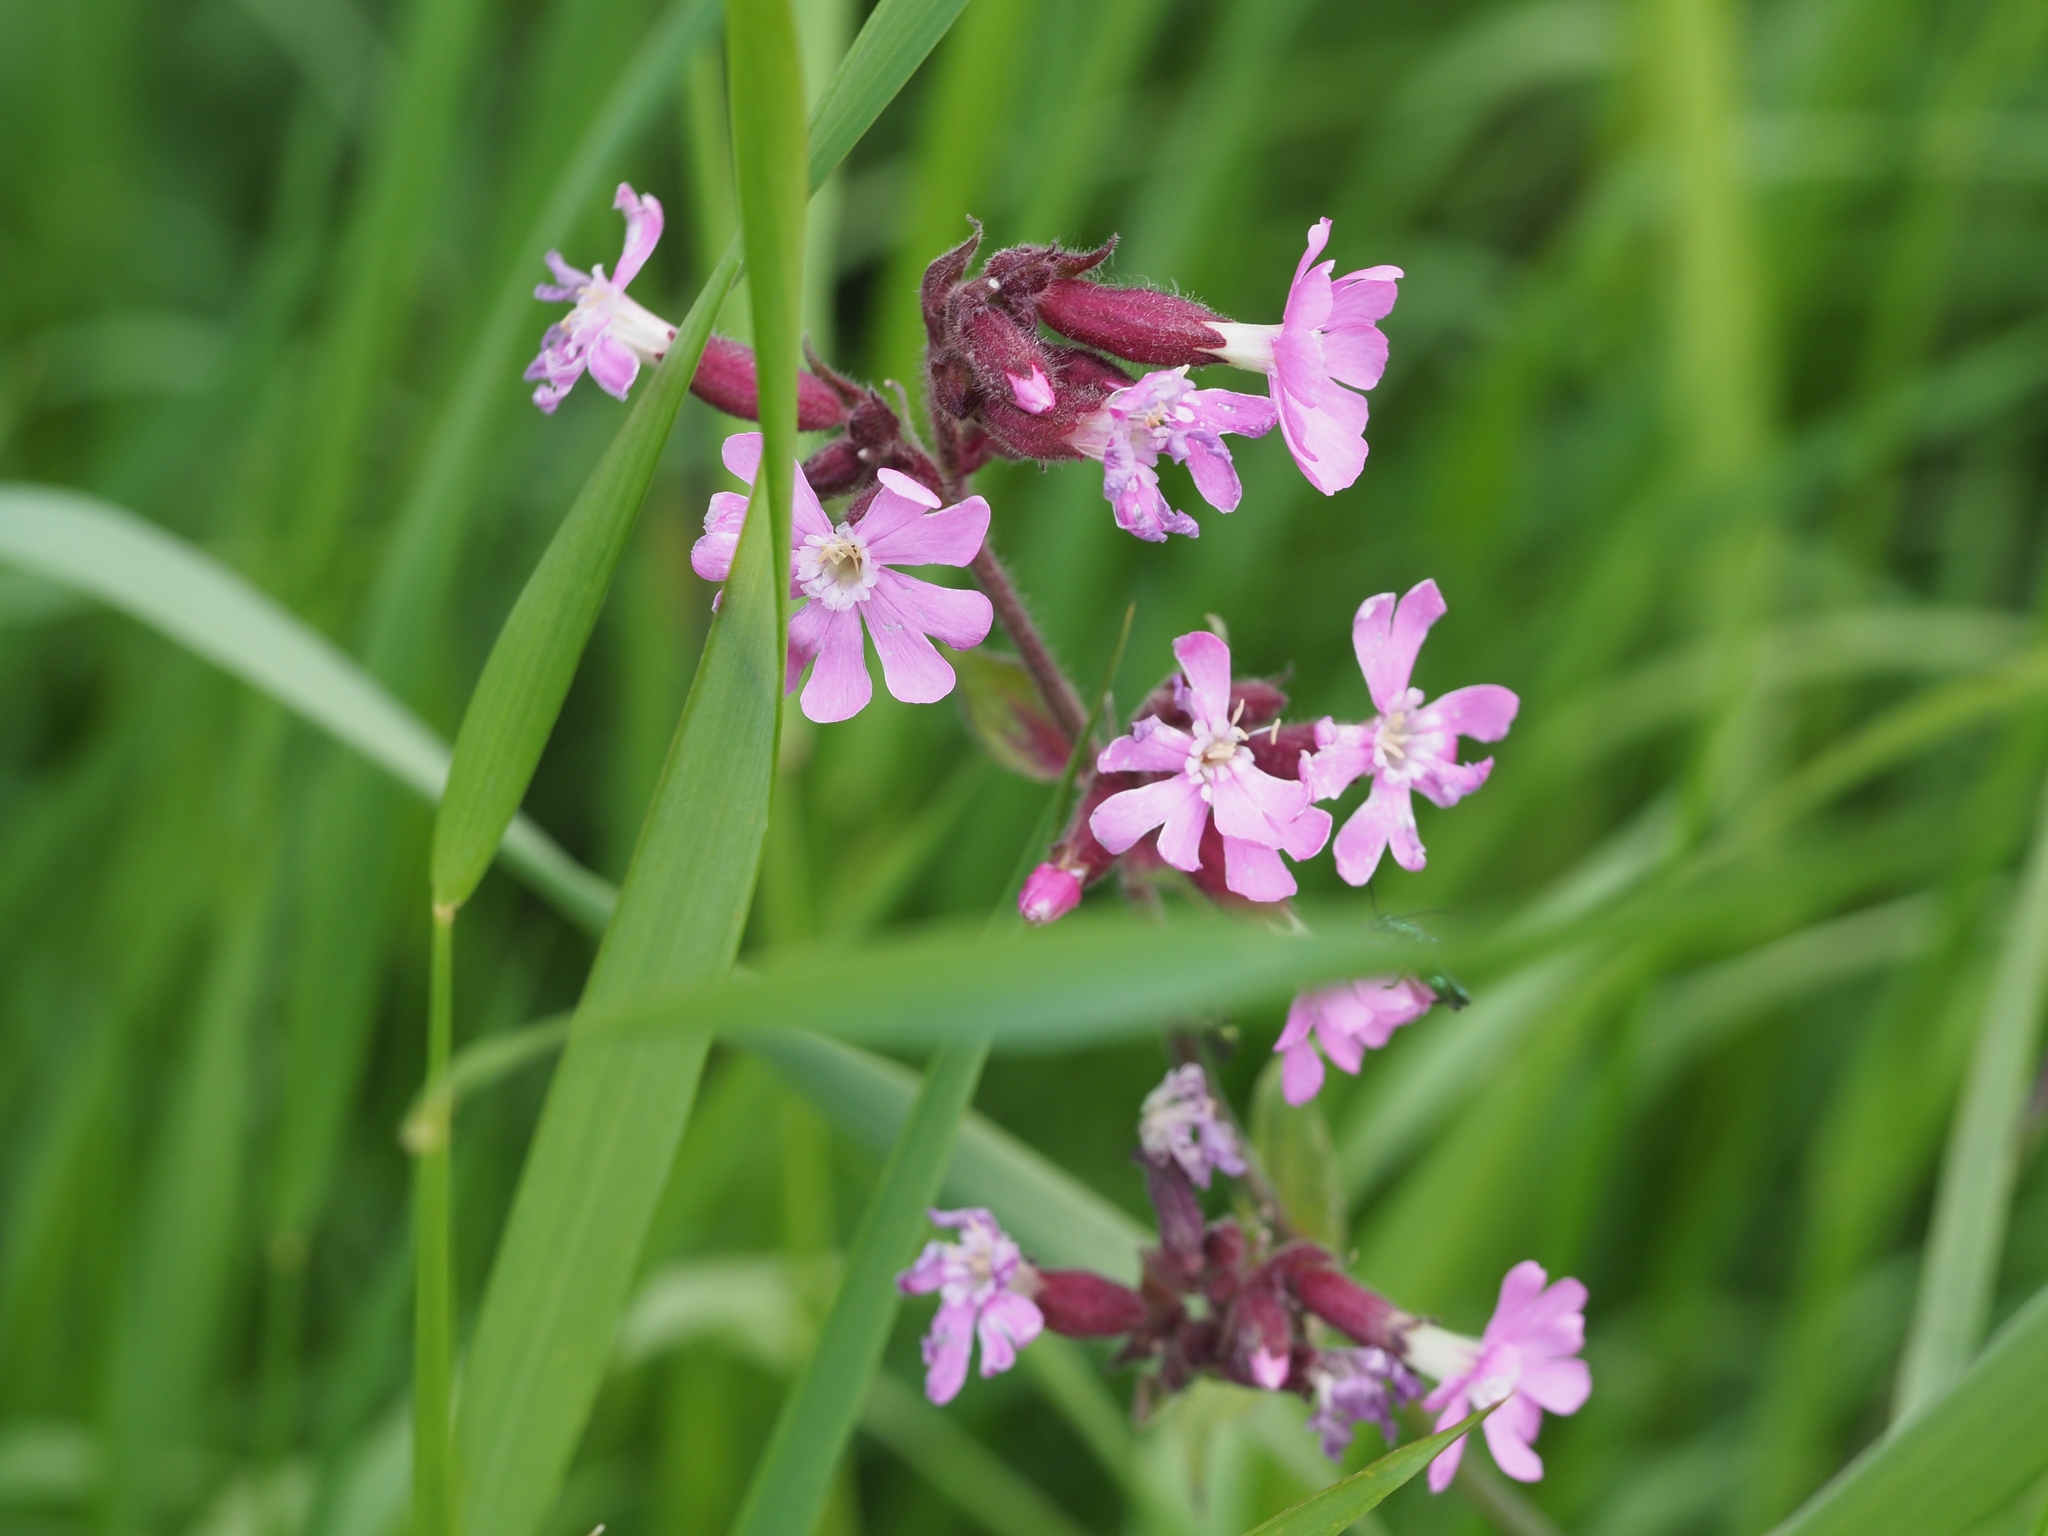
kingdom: Plantae
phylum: Tracheophyta
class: Magnoliopsida
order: Caryophyllales
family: Caryophyllaceae
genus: Silene
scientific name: Silene dioica
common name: Red campion
